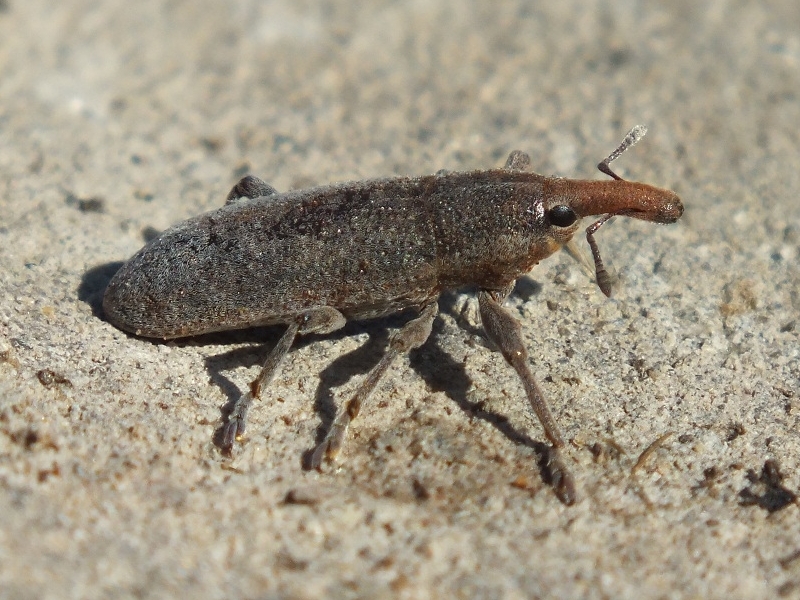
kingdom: Animalia
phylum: Arthropoda
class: Insecta
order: Coleoptera
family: Curculionidae
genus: Lixus
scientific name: Lixus punctiventris
